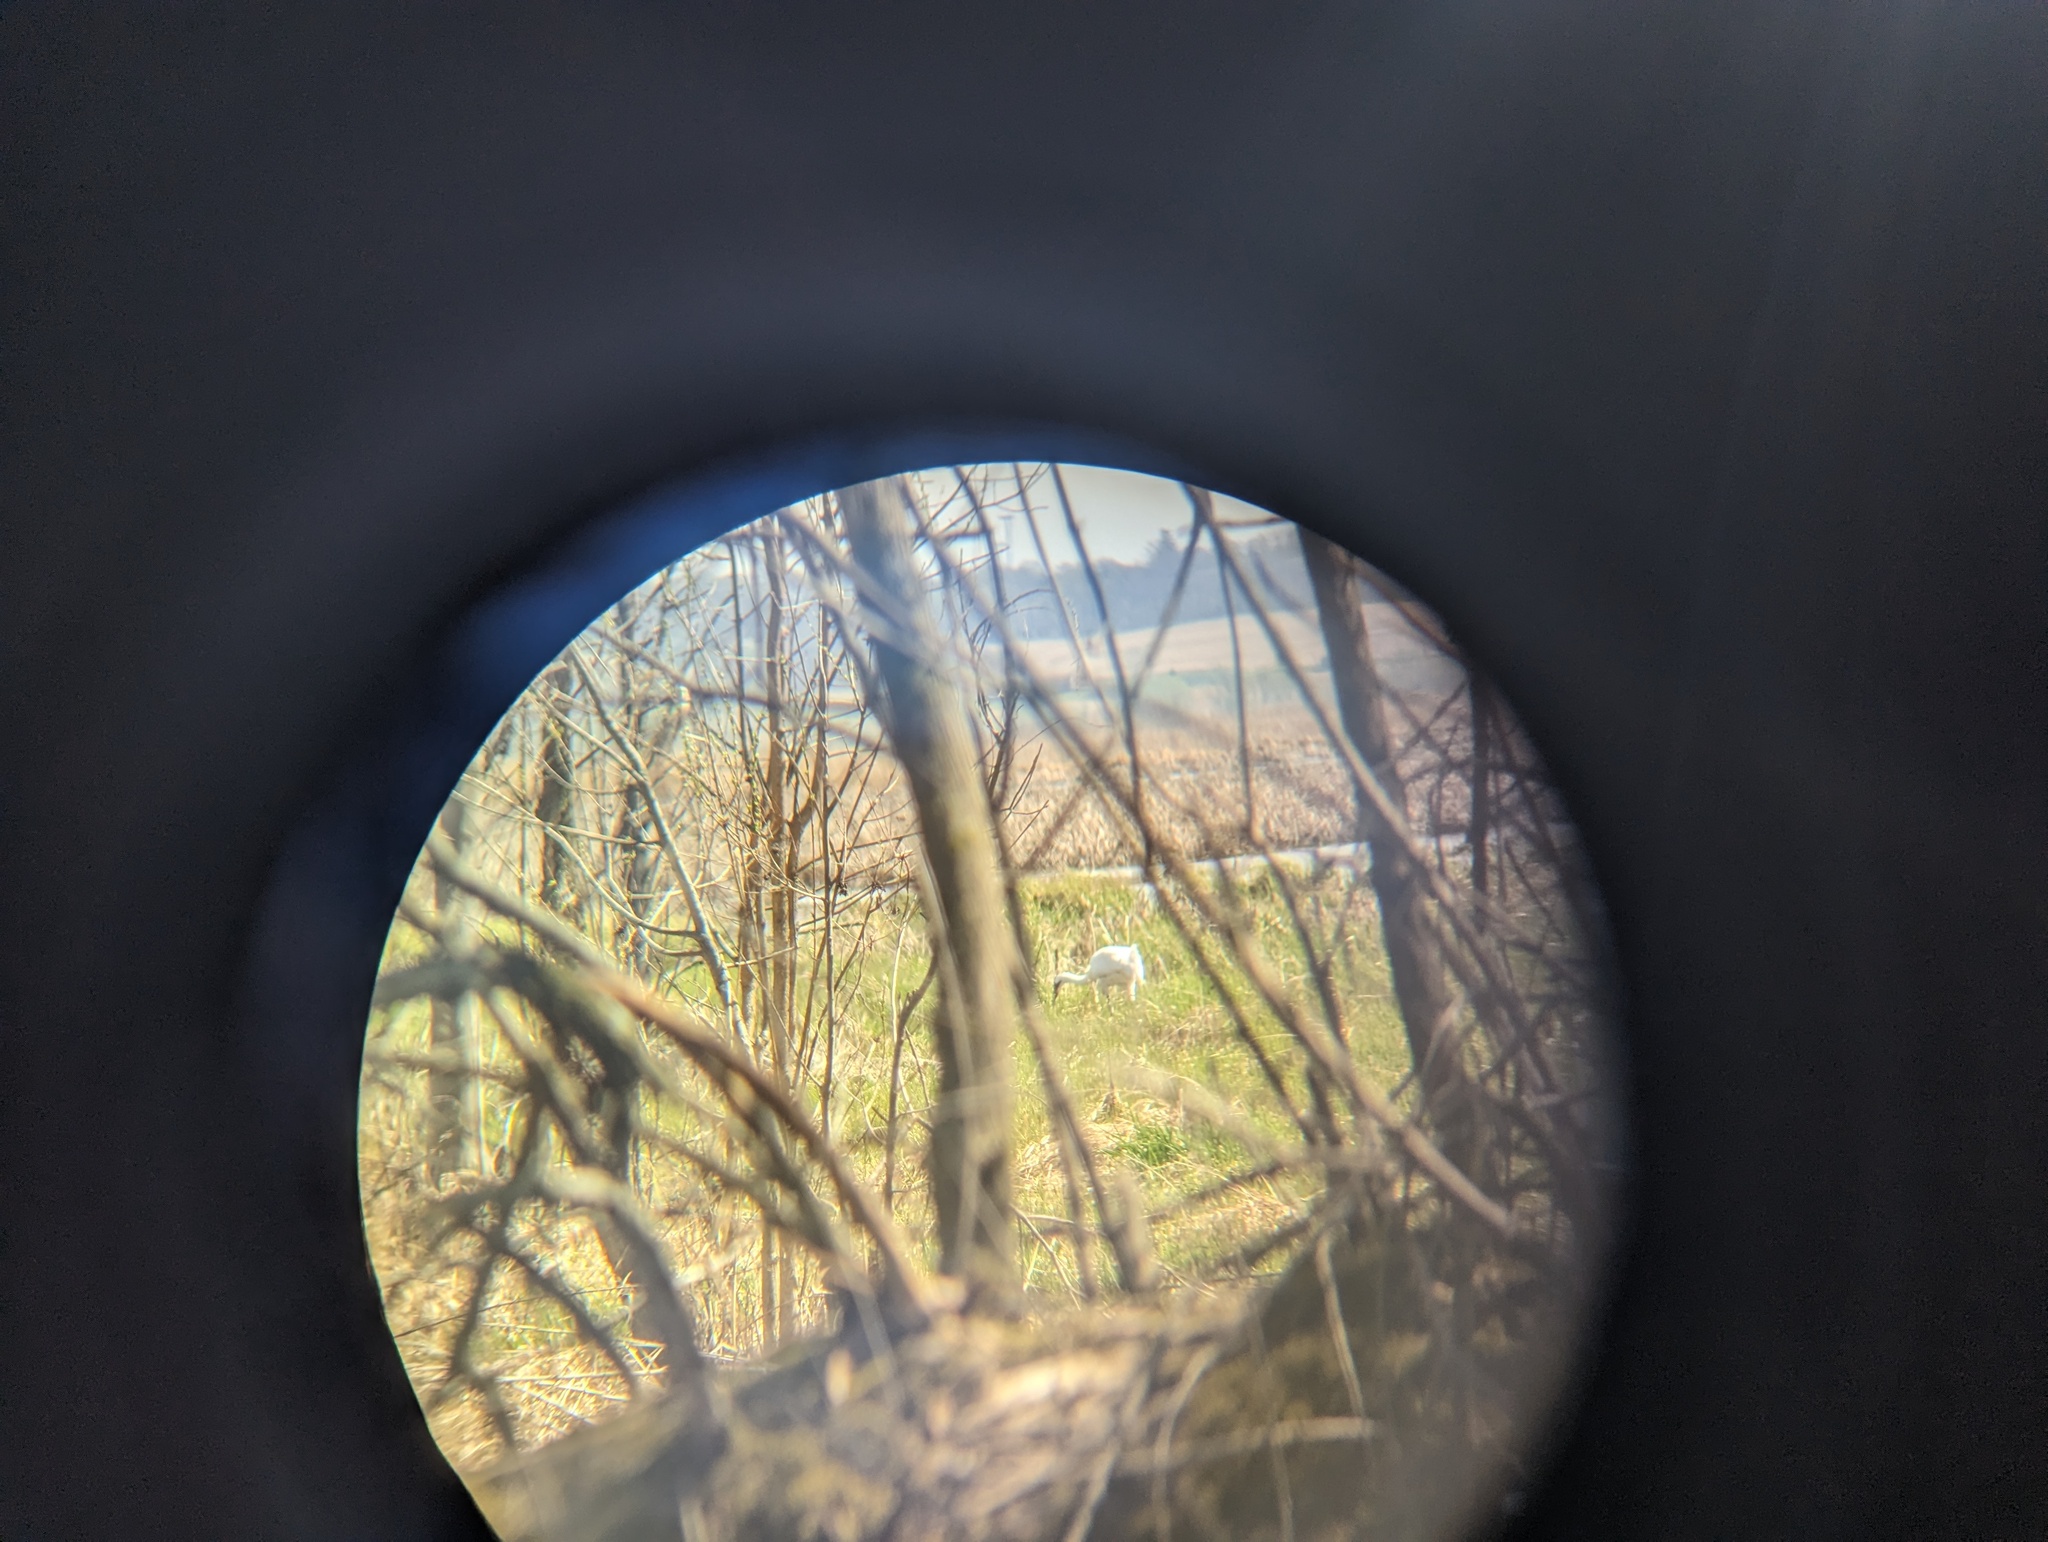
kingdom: Animalia
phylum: Chordata
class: Aves
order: Gruiformes
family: Gruidae
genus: Grus
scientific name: Grus americana
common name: Whooping crane
